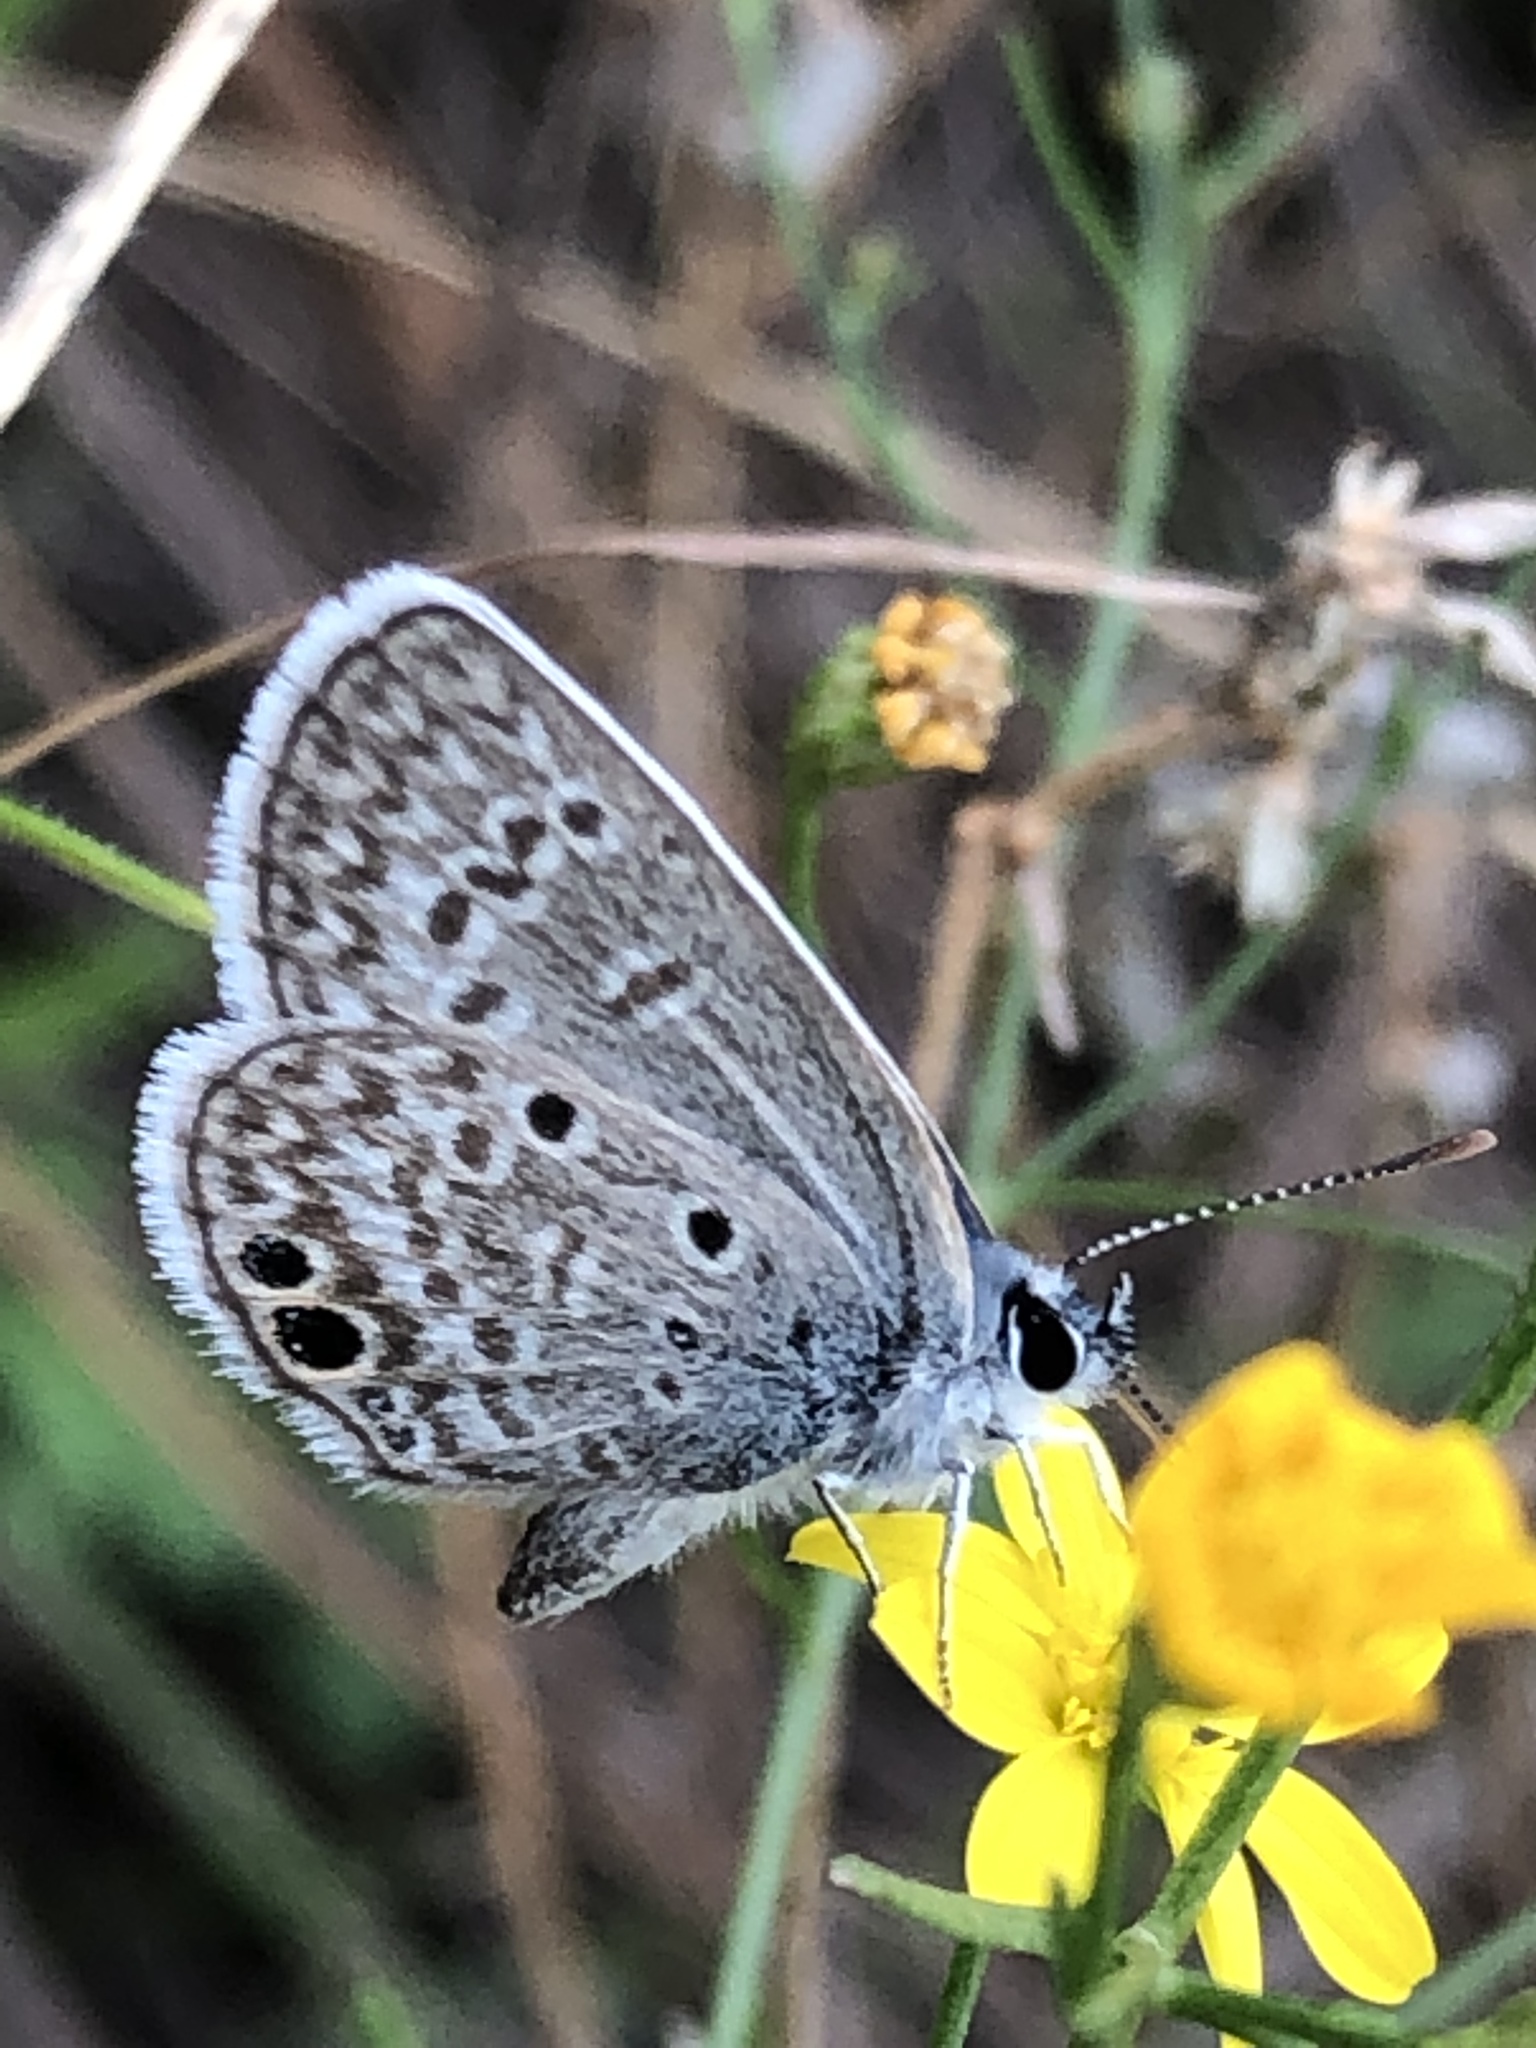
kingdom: Animalia
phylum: Arthropoda
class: Insecta
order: Lepidoptera
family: Lycaenidae
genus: Hemiargus
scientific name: Hemiargus ceraunus
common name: Ceraunus blue
